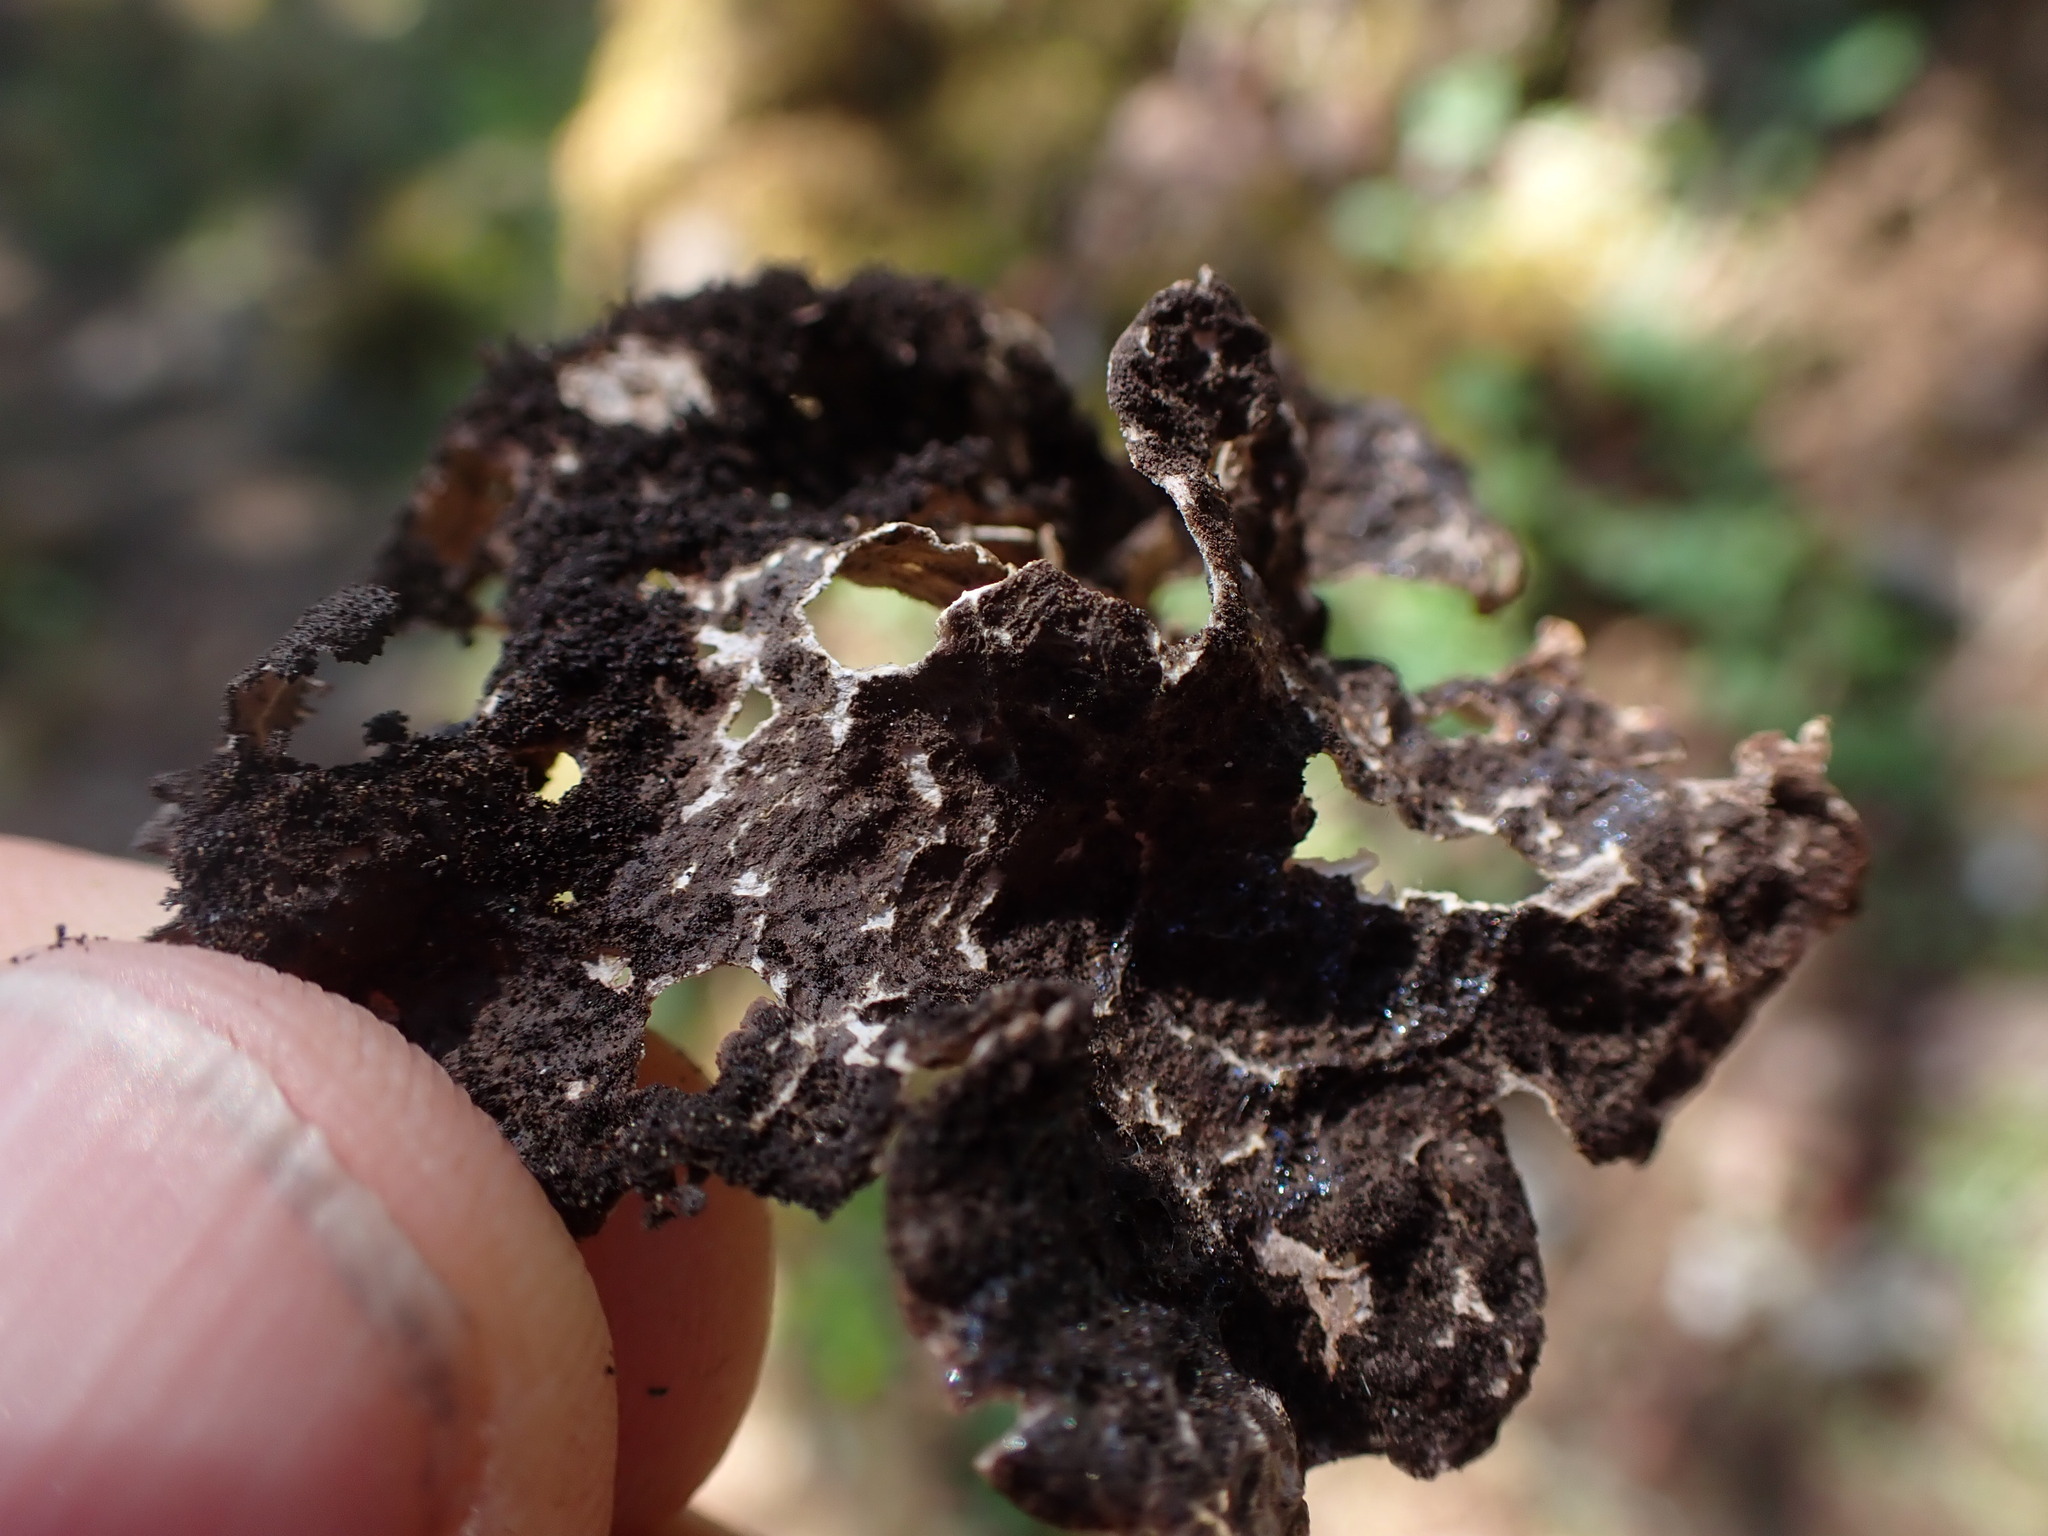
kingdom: Fungi
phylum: Ascomycota
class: Lecanoromycetes
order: Peltigerales
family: Lobariaceae
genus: Sticta
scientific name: Sticta
